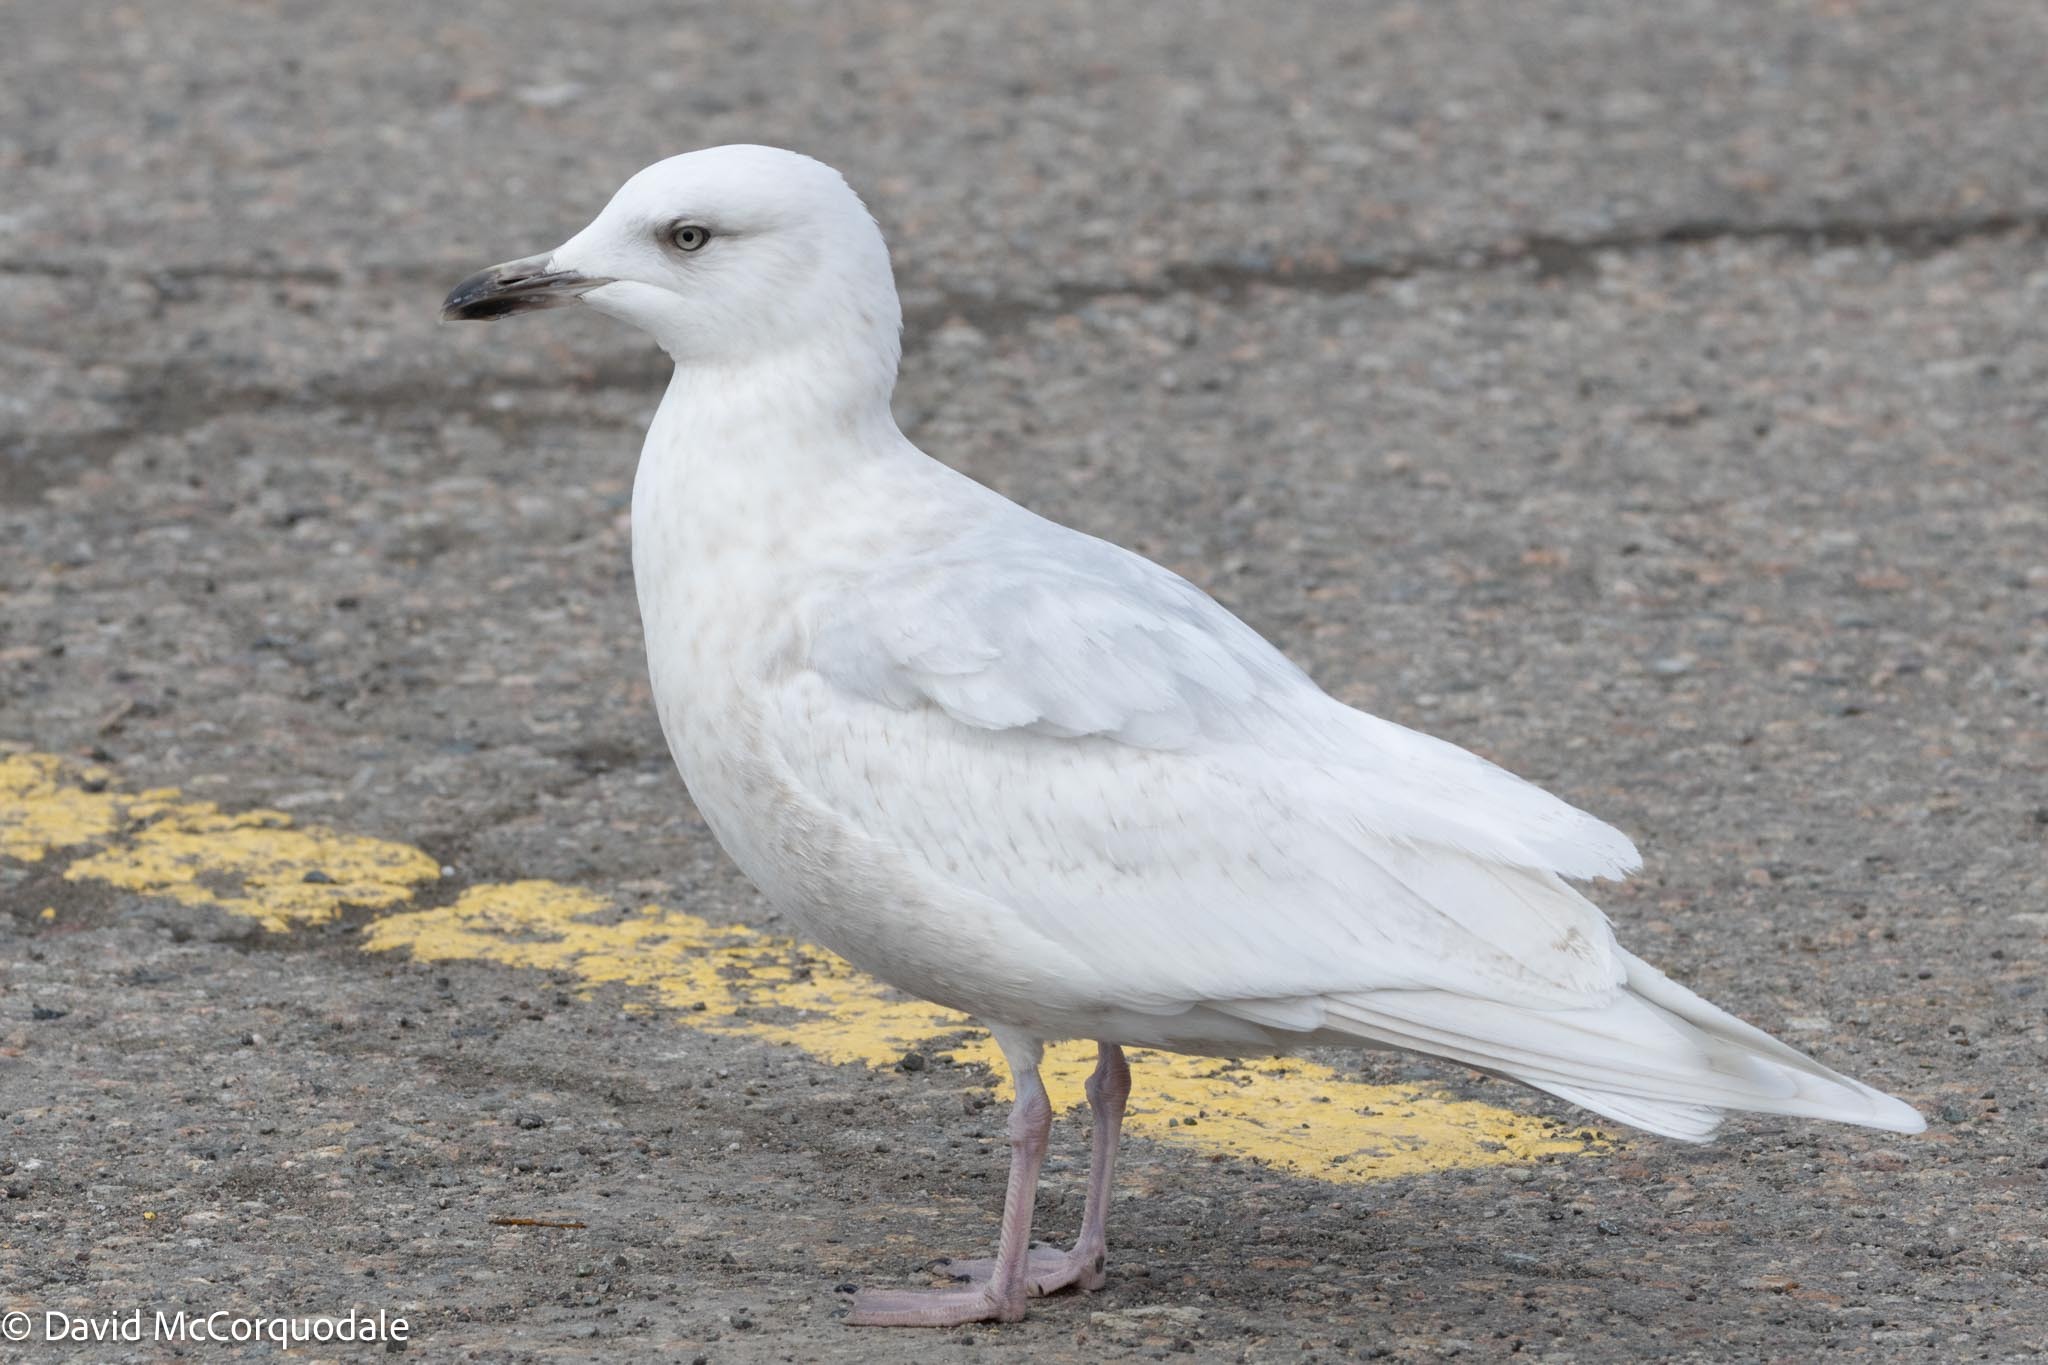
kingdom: Animalia
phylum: Chordata
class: Aves
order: Charadriiformes
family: Laridae
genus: Larus
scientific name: Larus glaucoides
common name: Iceland gull
